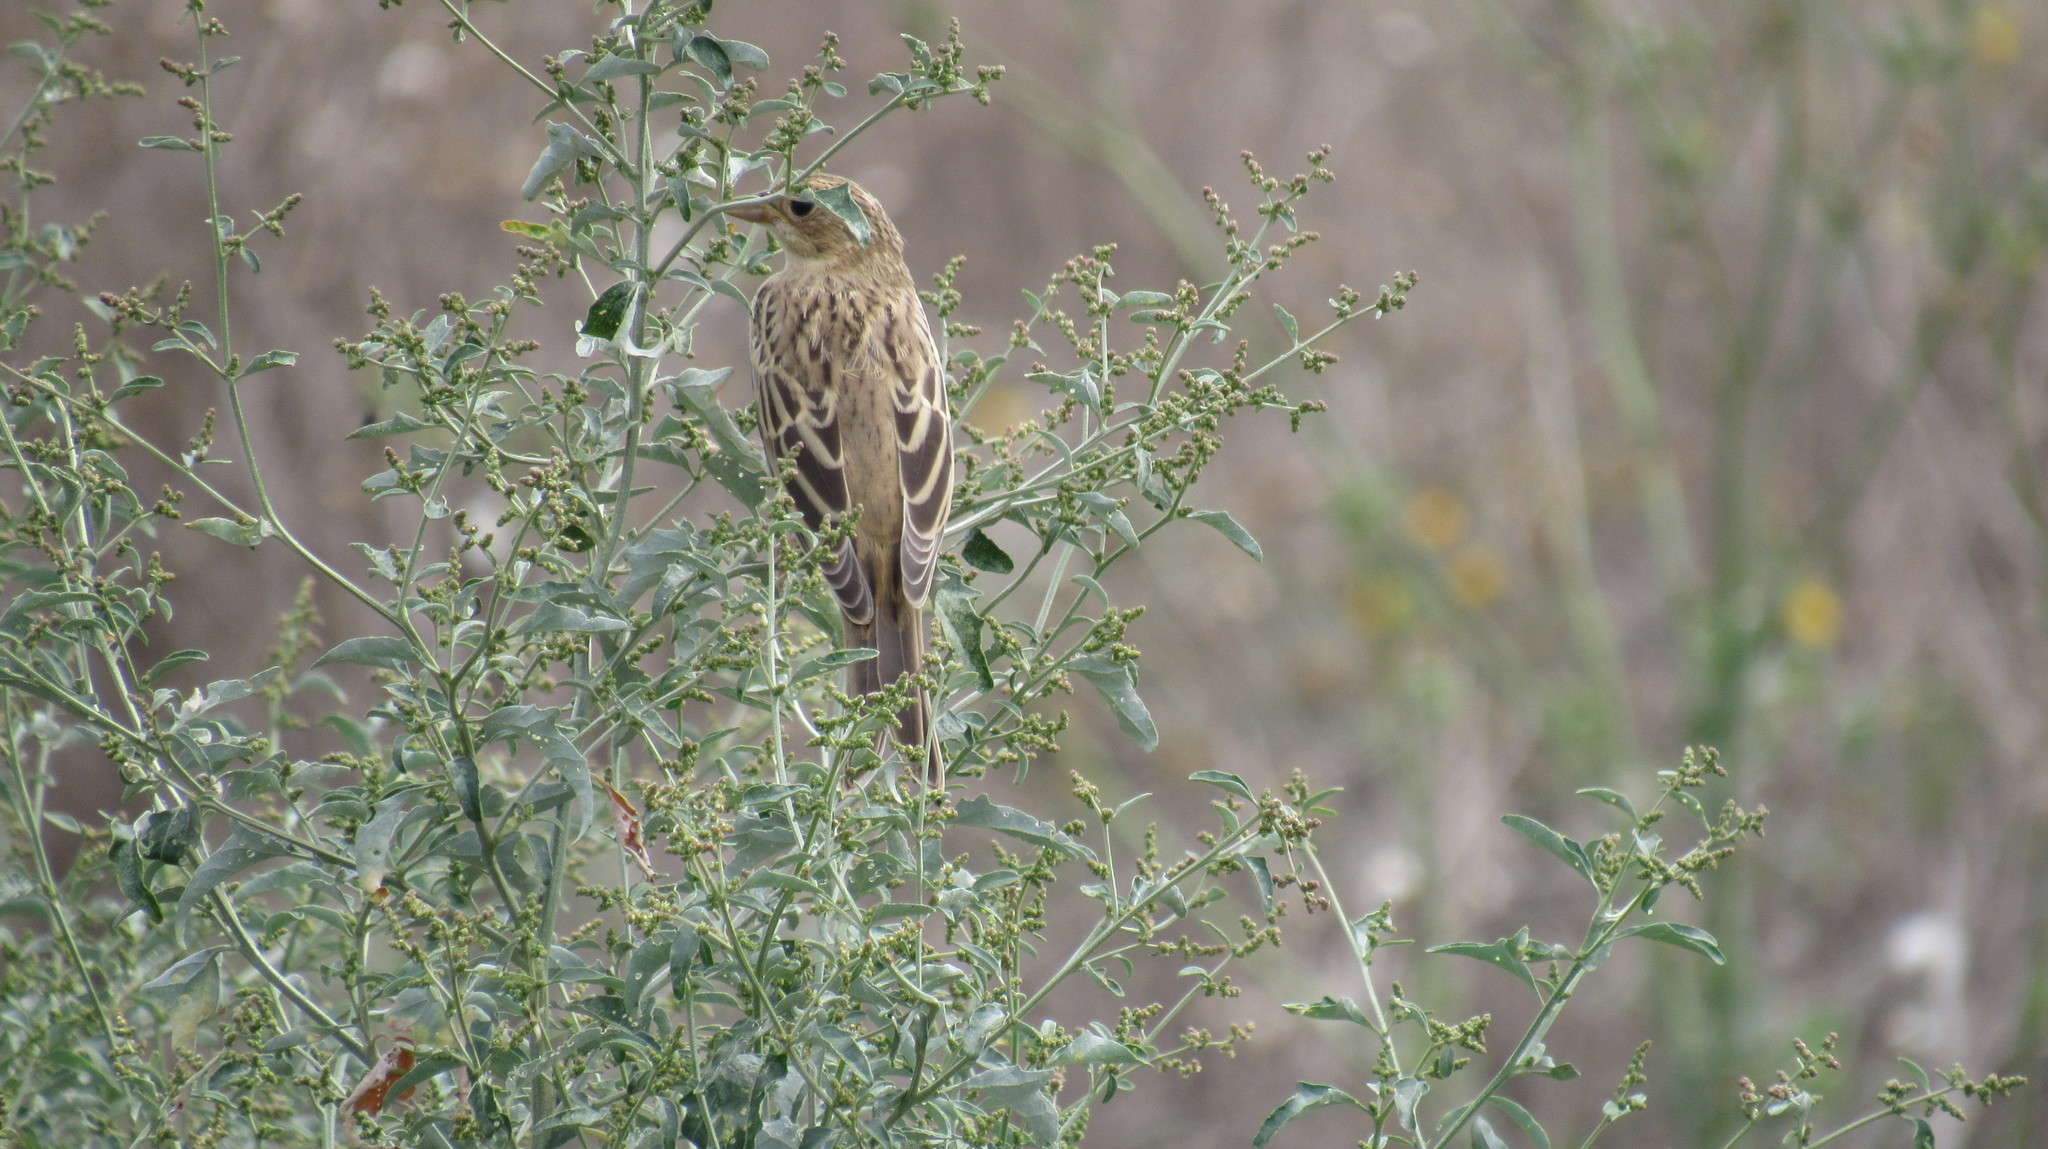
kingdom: Animalia
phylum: Chordata
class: Aves
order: Passeriformes
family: Emberizidae
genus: Emberiza
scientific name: Emberiza hortulana
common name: Ortolan bunting
